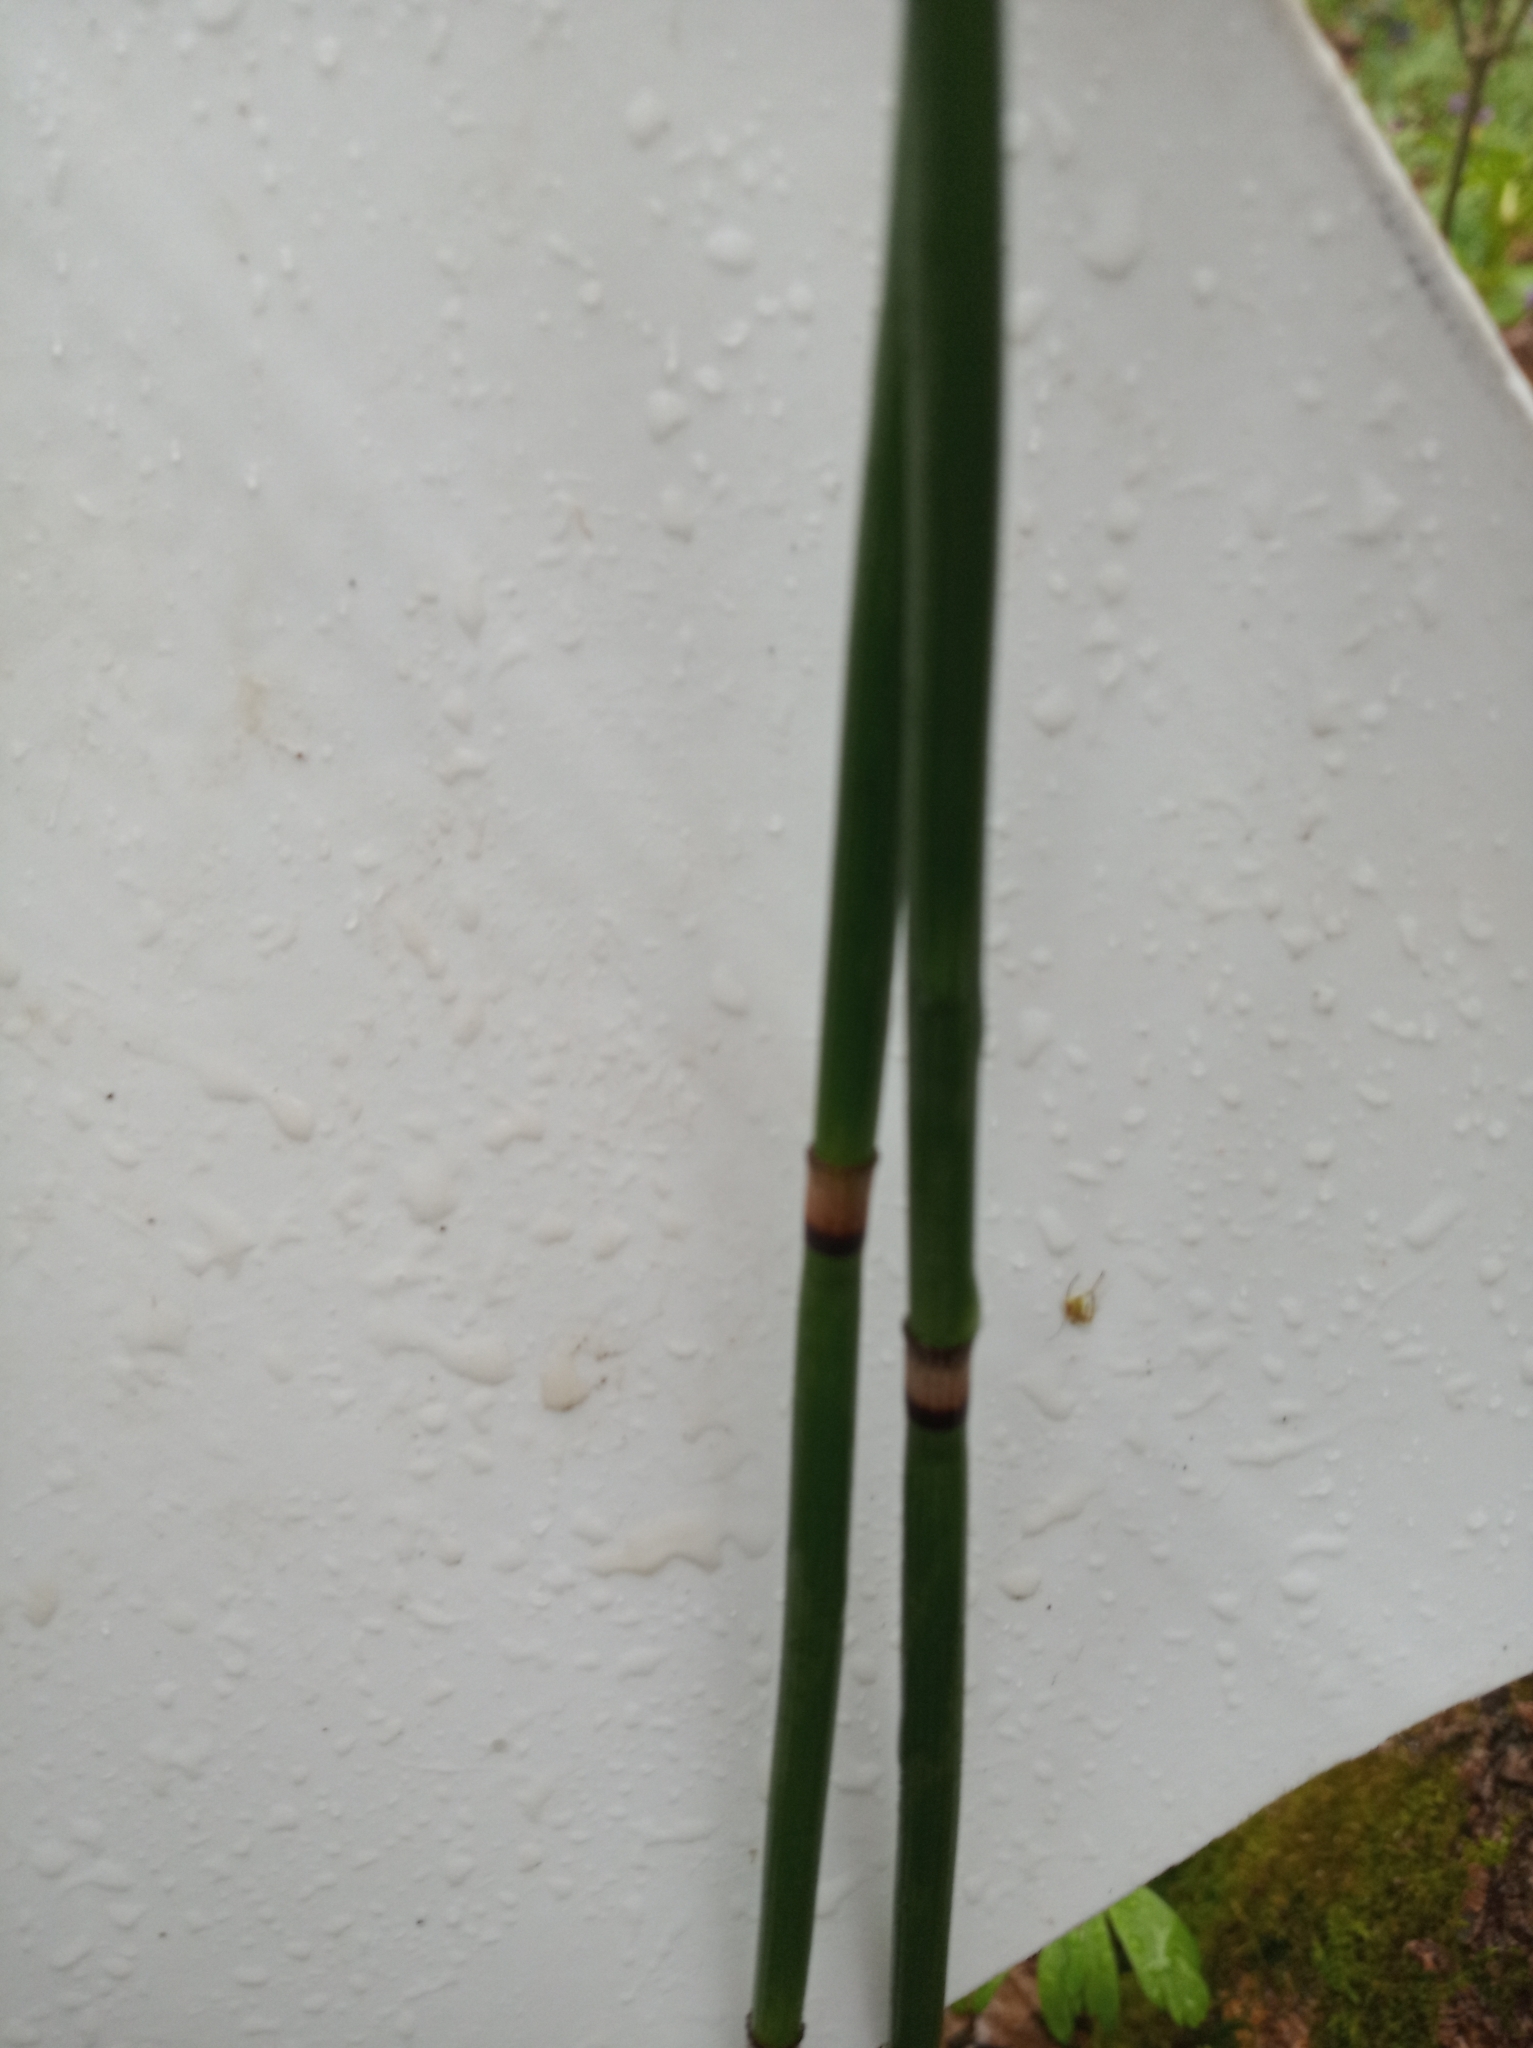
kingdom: Plantae
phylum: Tracheophyta
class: Polypodiopsida
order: Equisetales
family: Equisetaceae
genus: Equisetum
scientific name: Equisetum hyemale
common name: Rough horsetail
